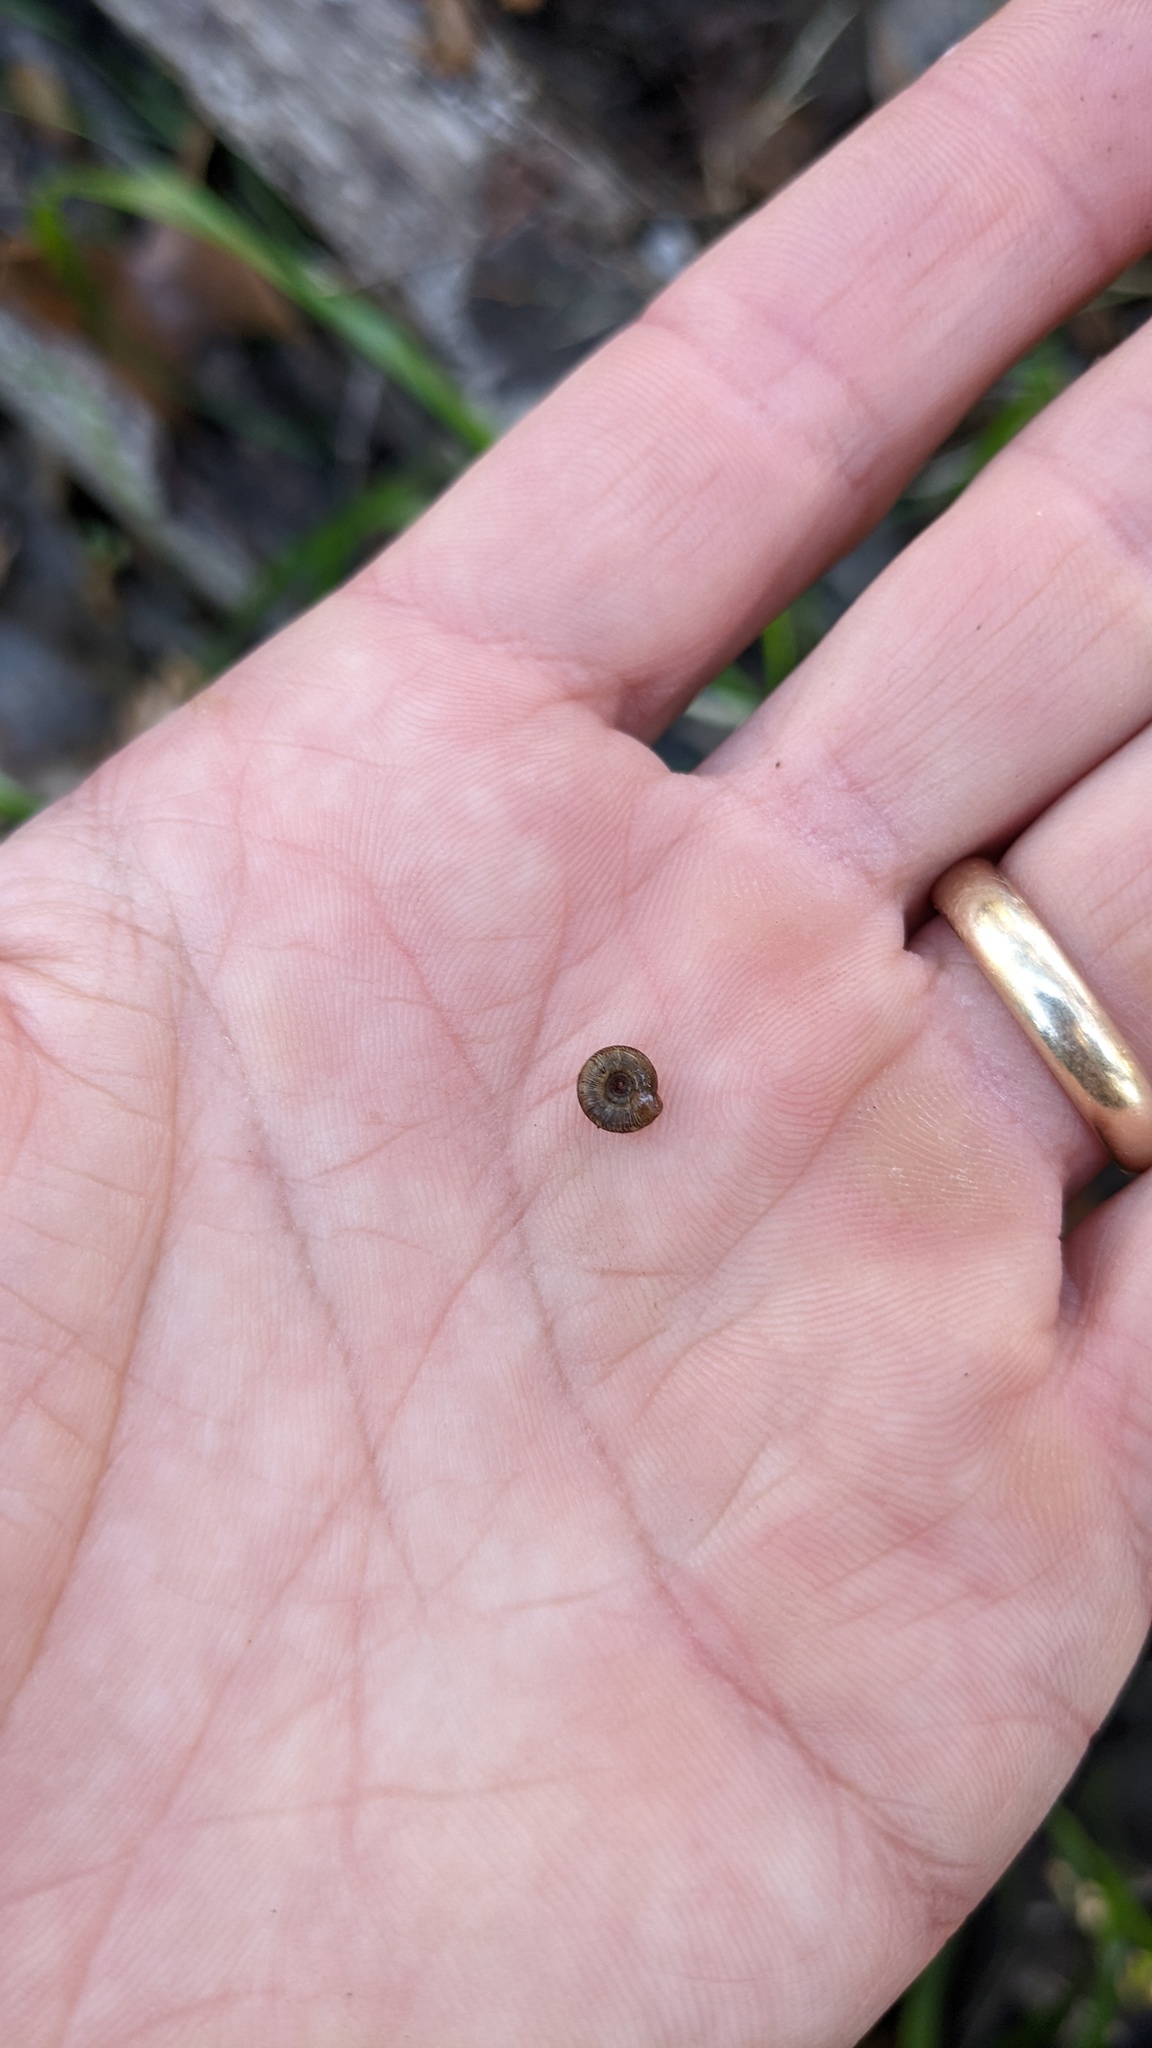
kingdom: Animalia
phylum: Mollusca
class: Gastropoda
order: Stylommatophora
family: Discidae
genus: Discus
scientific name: Discus rotundatus
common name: Rounded snail
